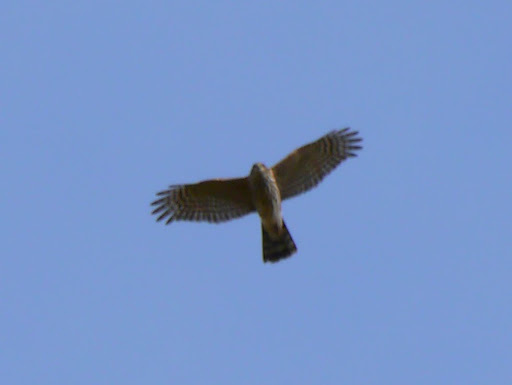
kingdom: Animalia
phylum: Chordata
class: Aves
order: Accipitriformes
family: Accipitridae
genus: Accipiter
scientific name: Accipiter striatus
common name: Sharp-shinned hawk
